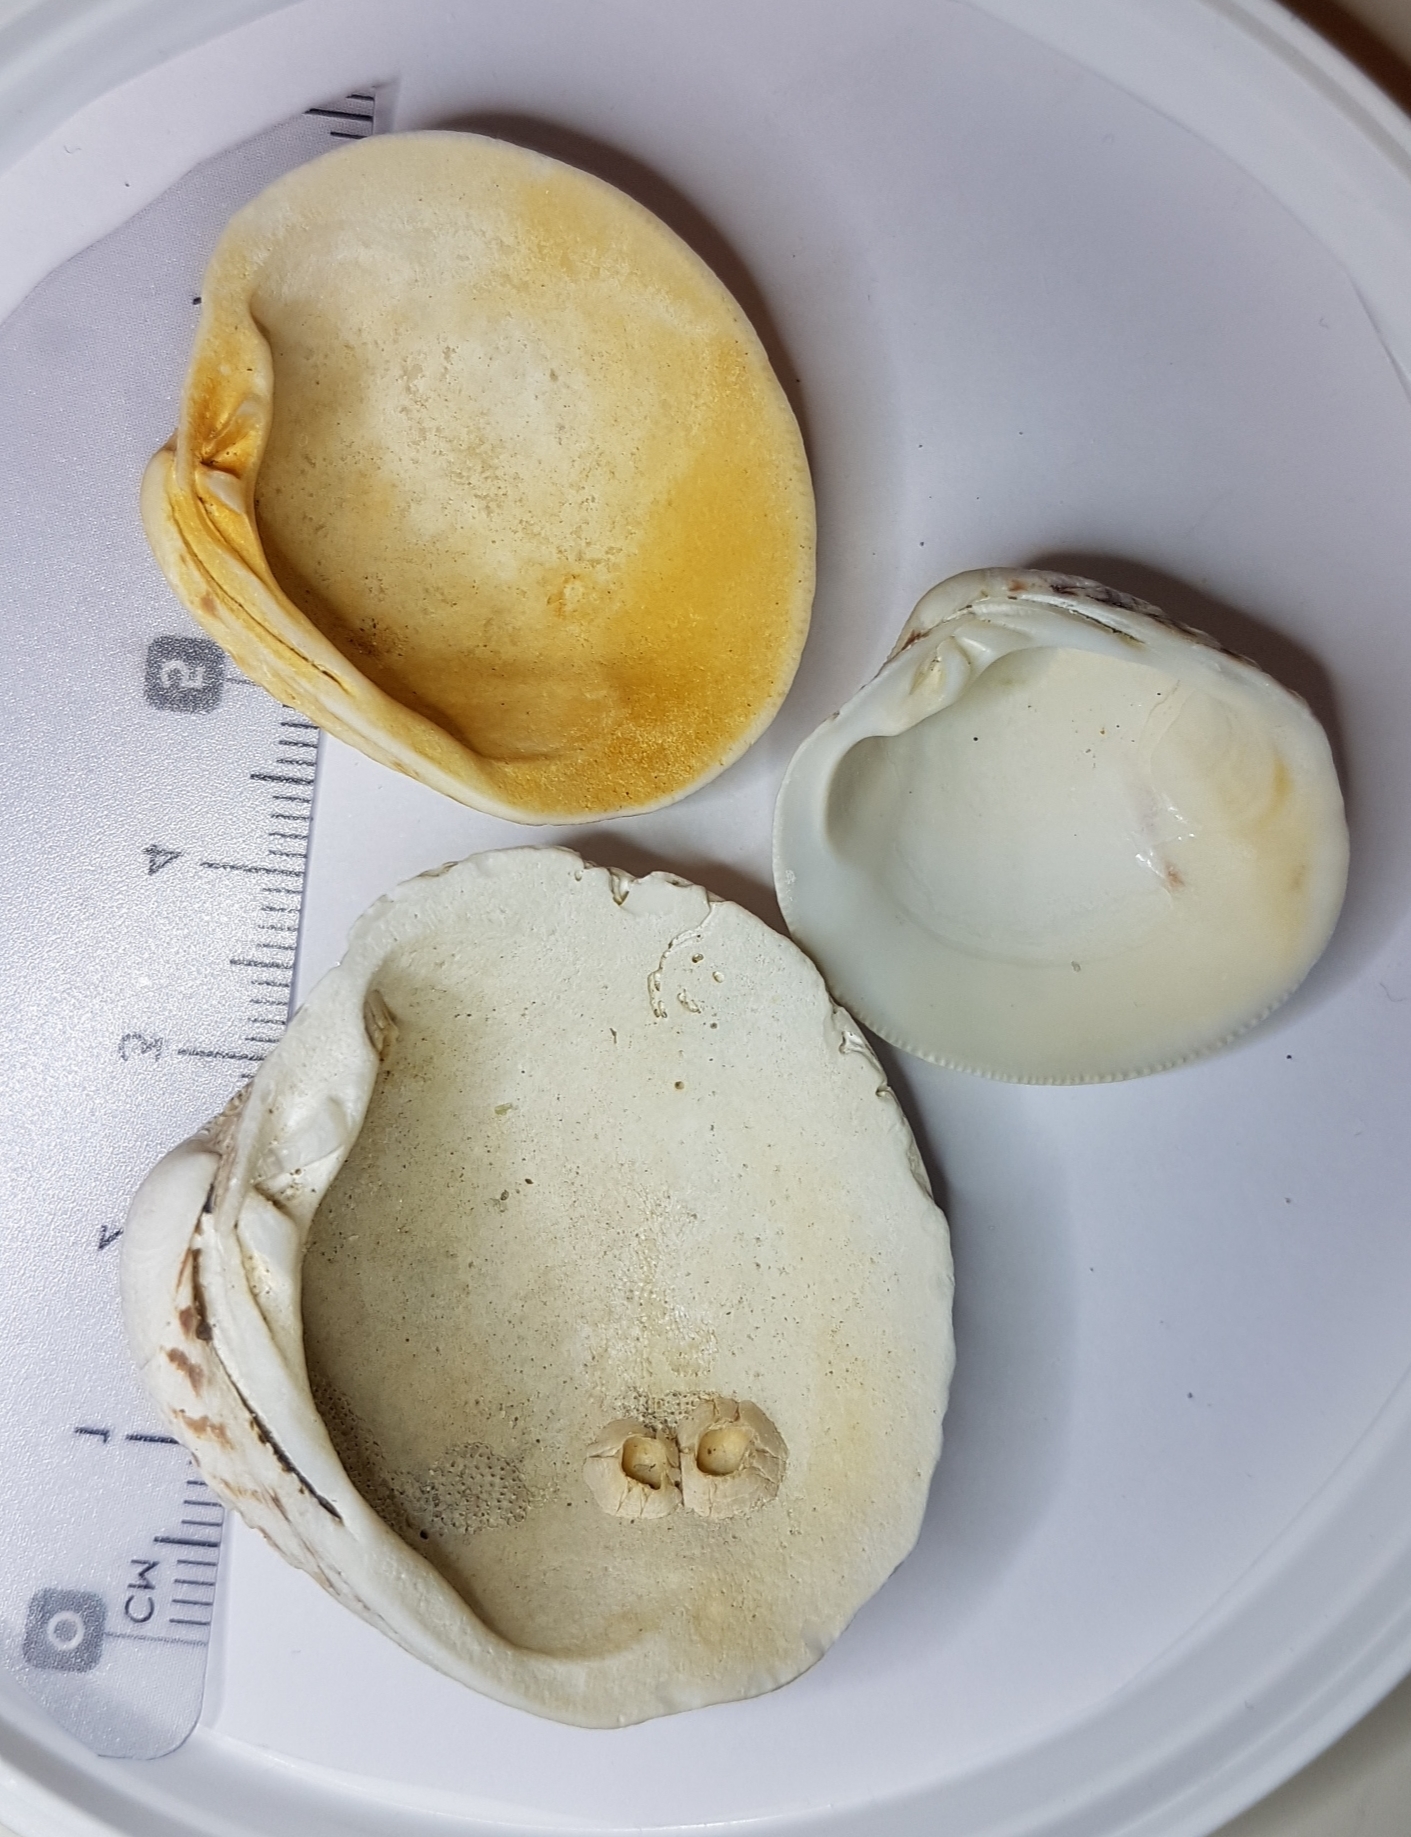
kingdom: Animalia
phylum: Mollusca
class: Bivalvia
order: Venerida
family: Veneridae
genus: Venus
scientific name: Venus verrucosa
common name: Warty venus
